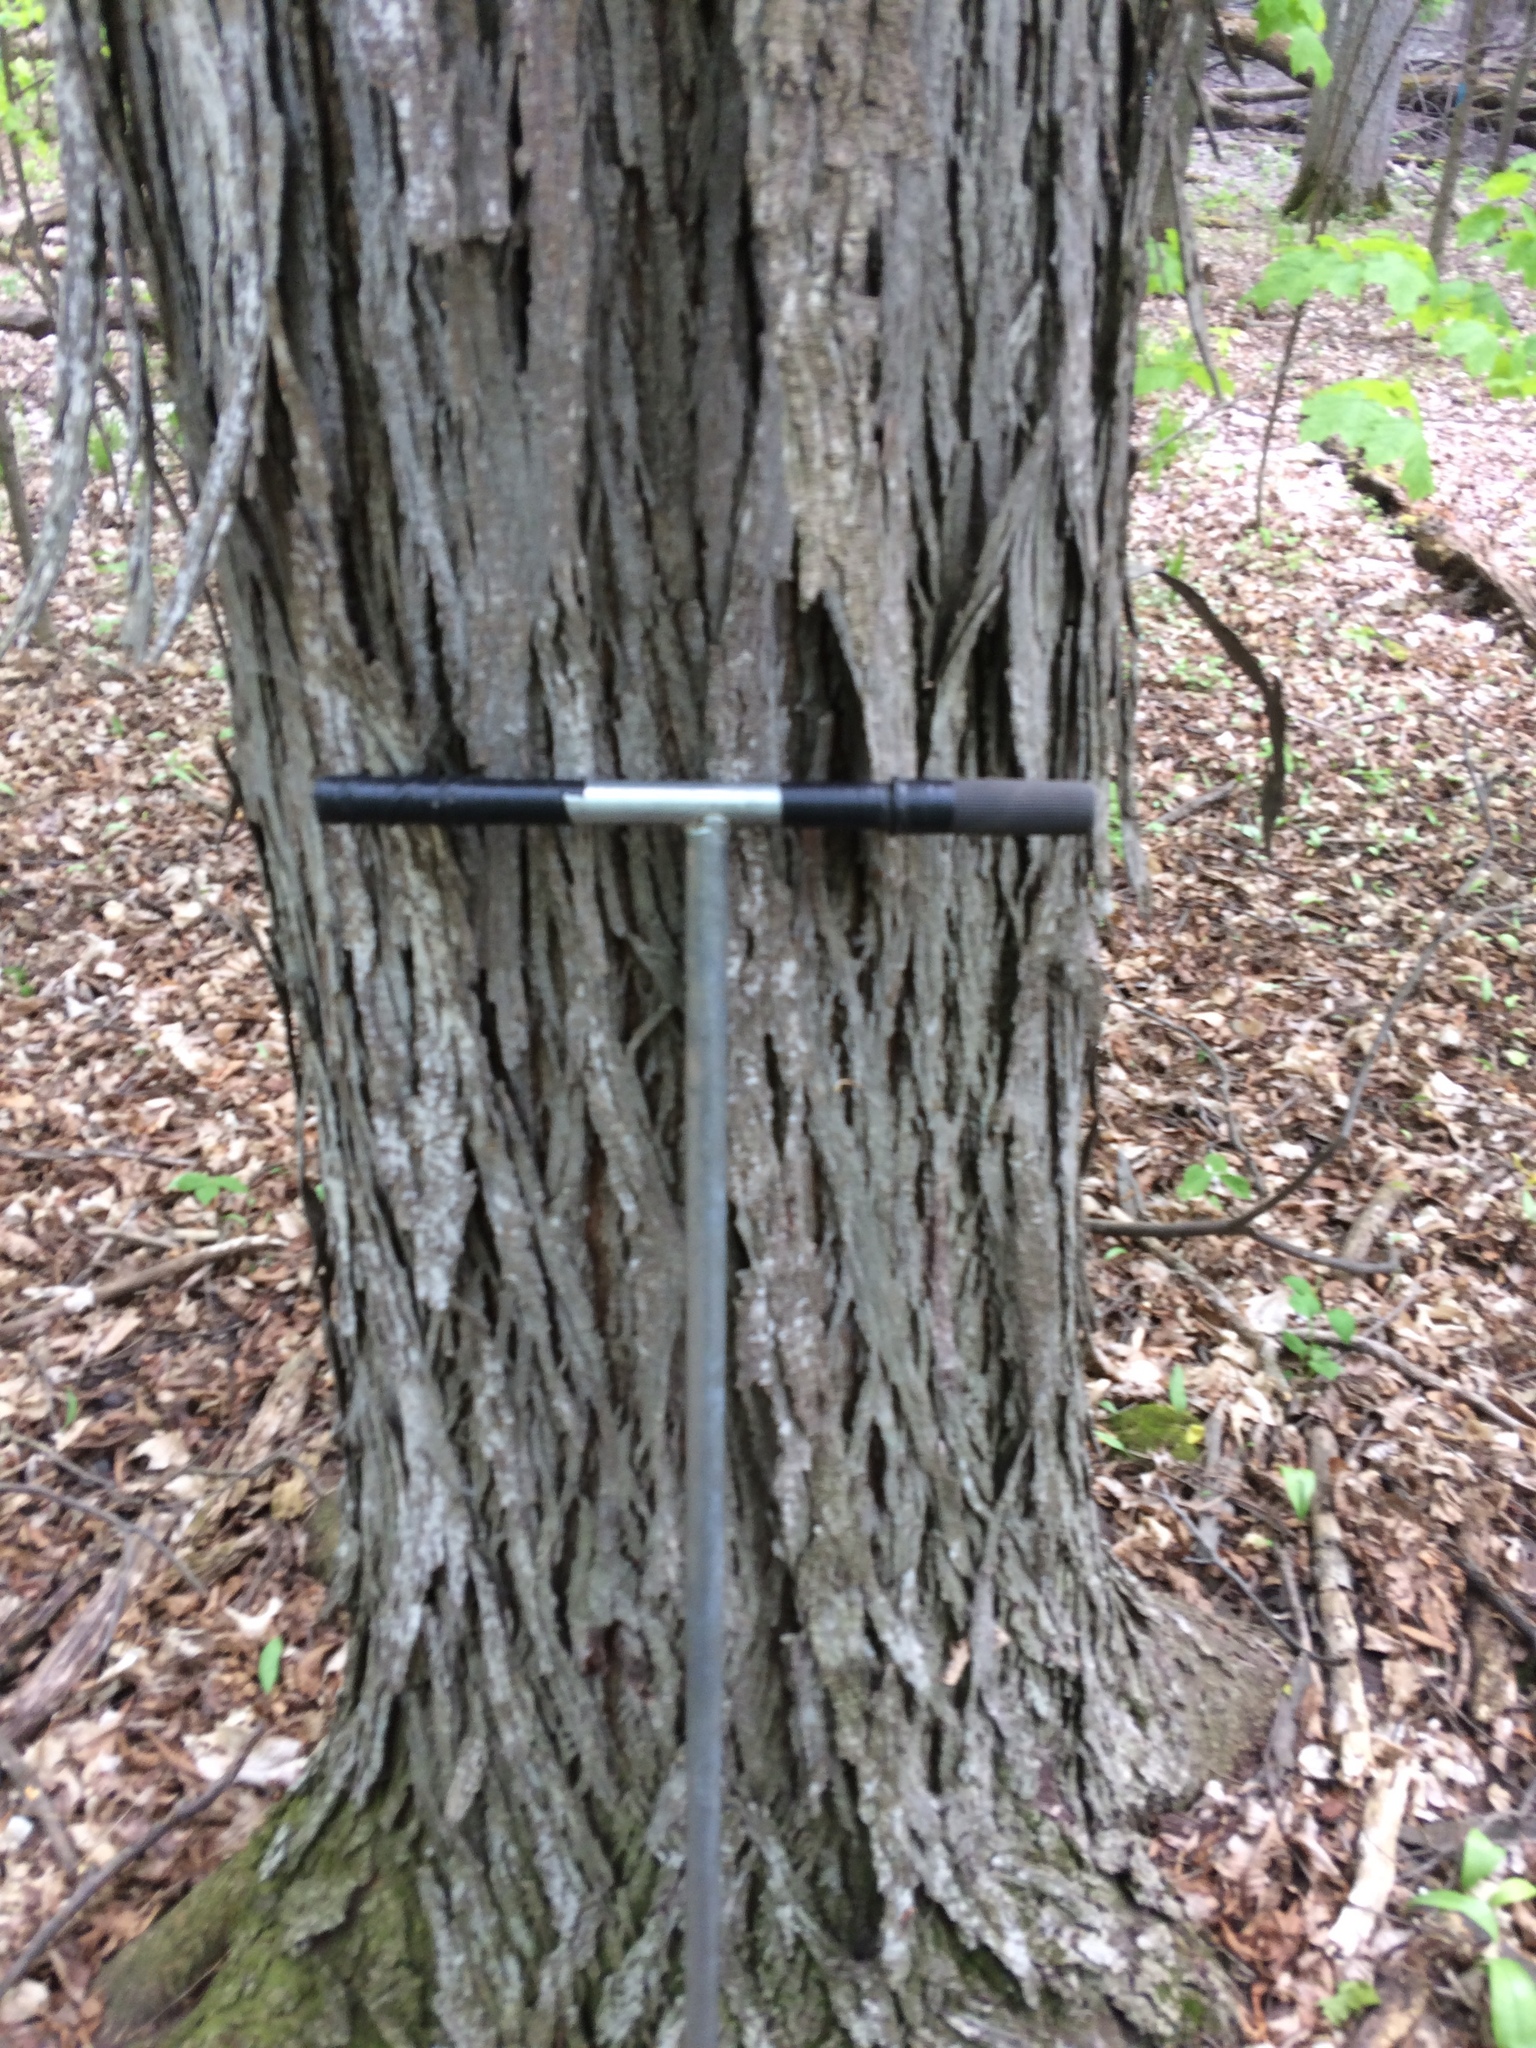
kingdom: Plantae
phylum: Tracheophyta
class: Magnoliopsida
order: Fagales
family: Juglandaceae
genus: Carya
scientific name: Carya ovata
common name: Shagbark hickory
